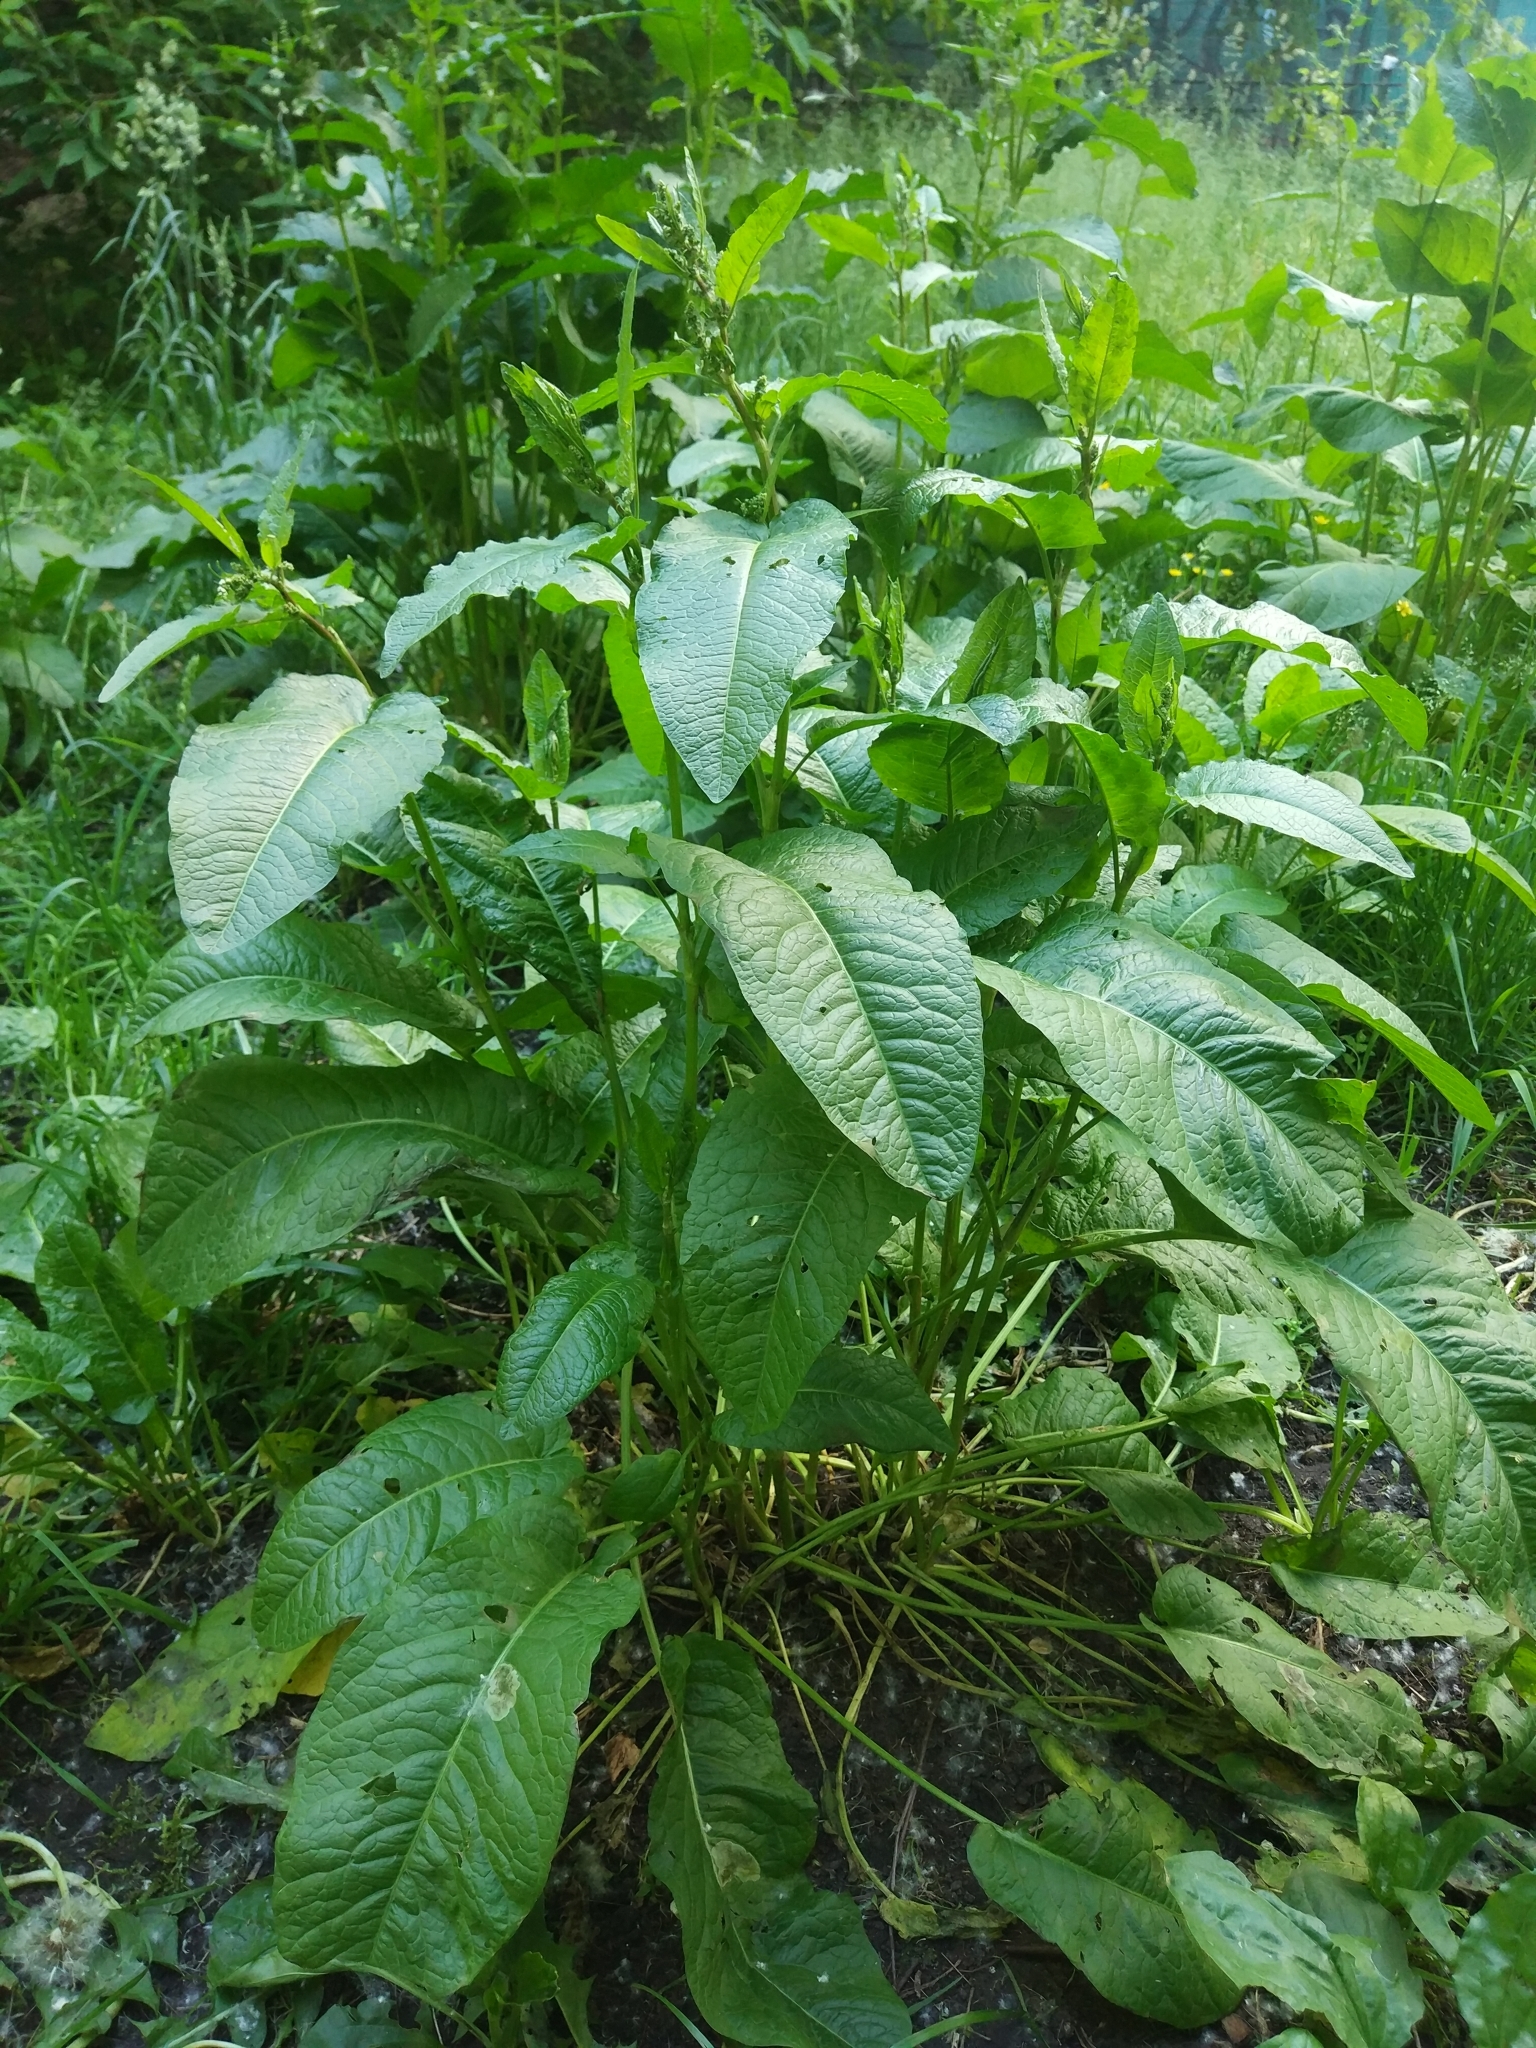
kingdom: Plantae
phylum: Tracheophyta
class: Magnoliopsida
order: Caryophyllales
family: Polygonaceae
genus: Rumex
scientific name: Rumex obtusifolius
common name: Bitter dock
